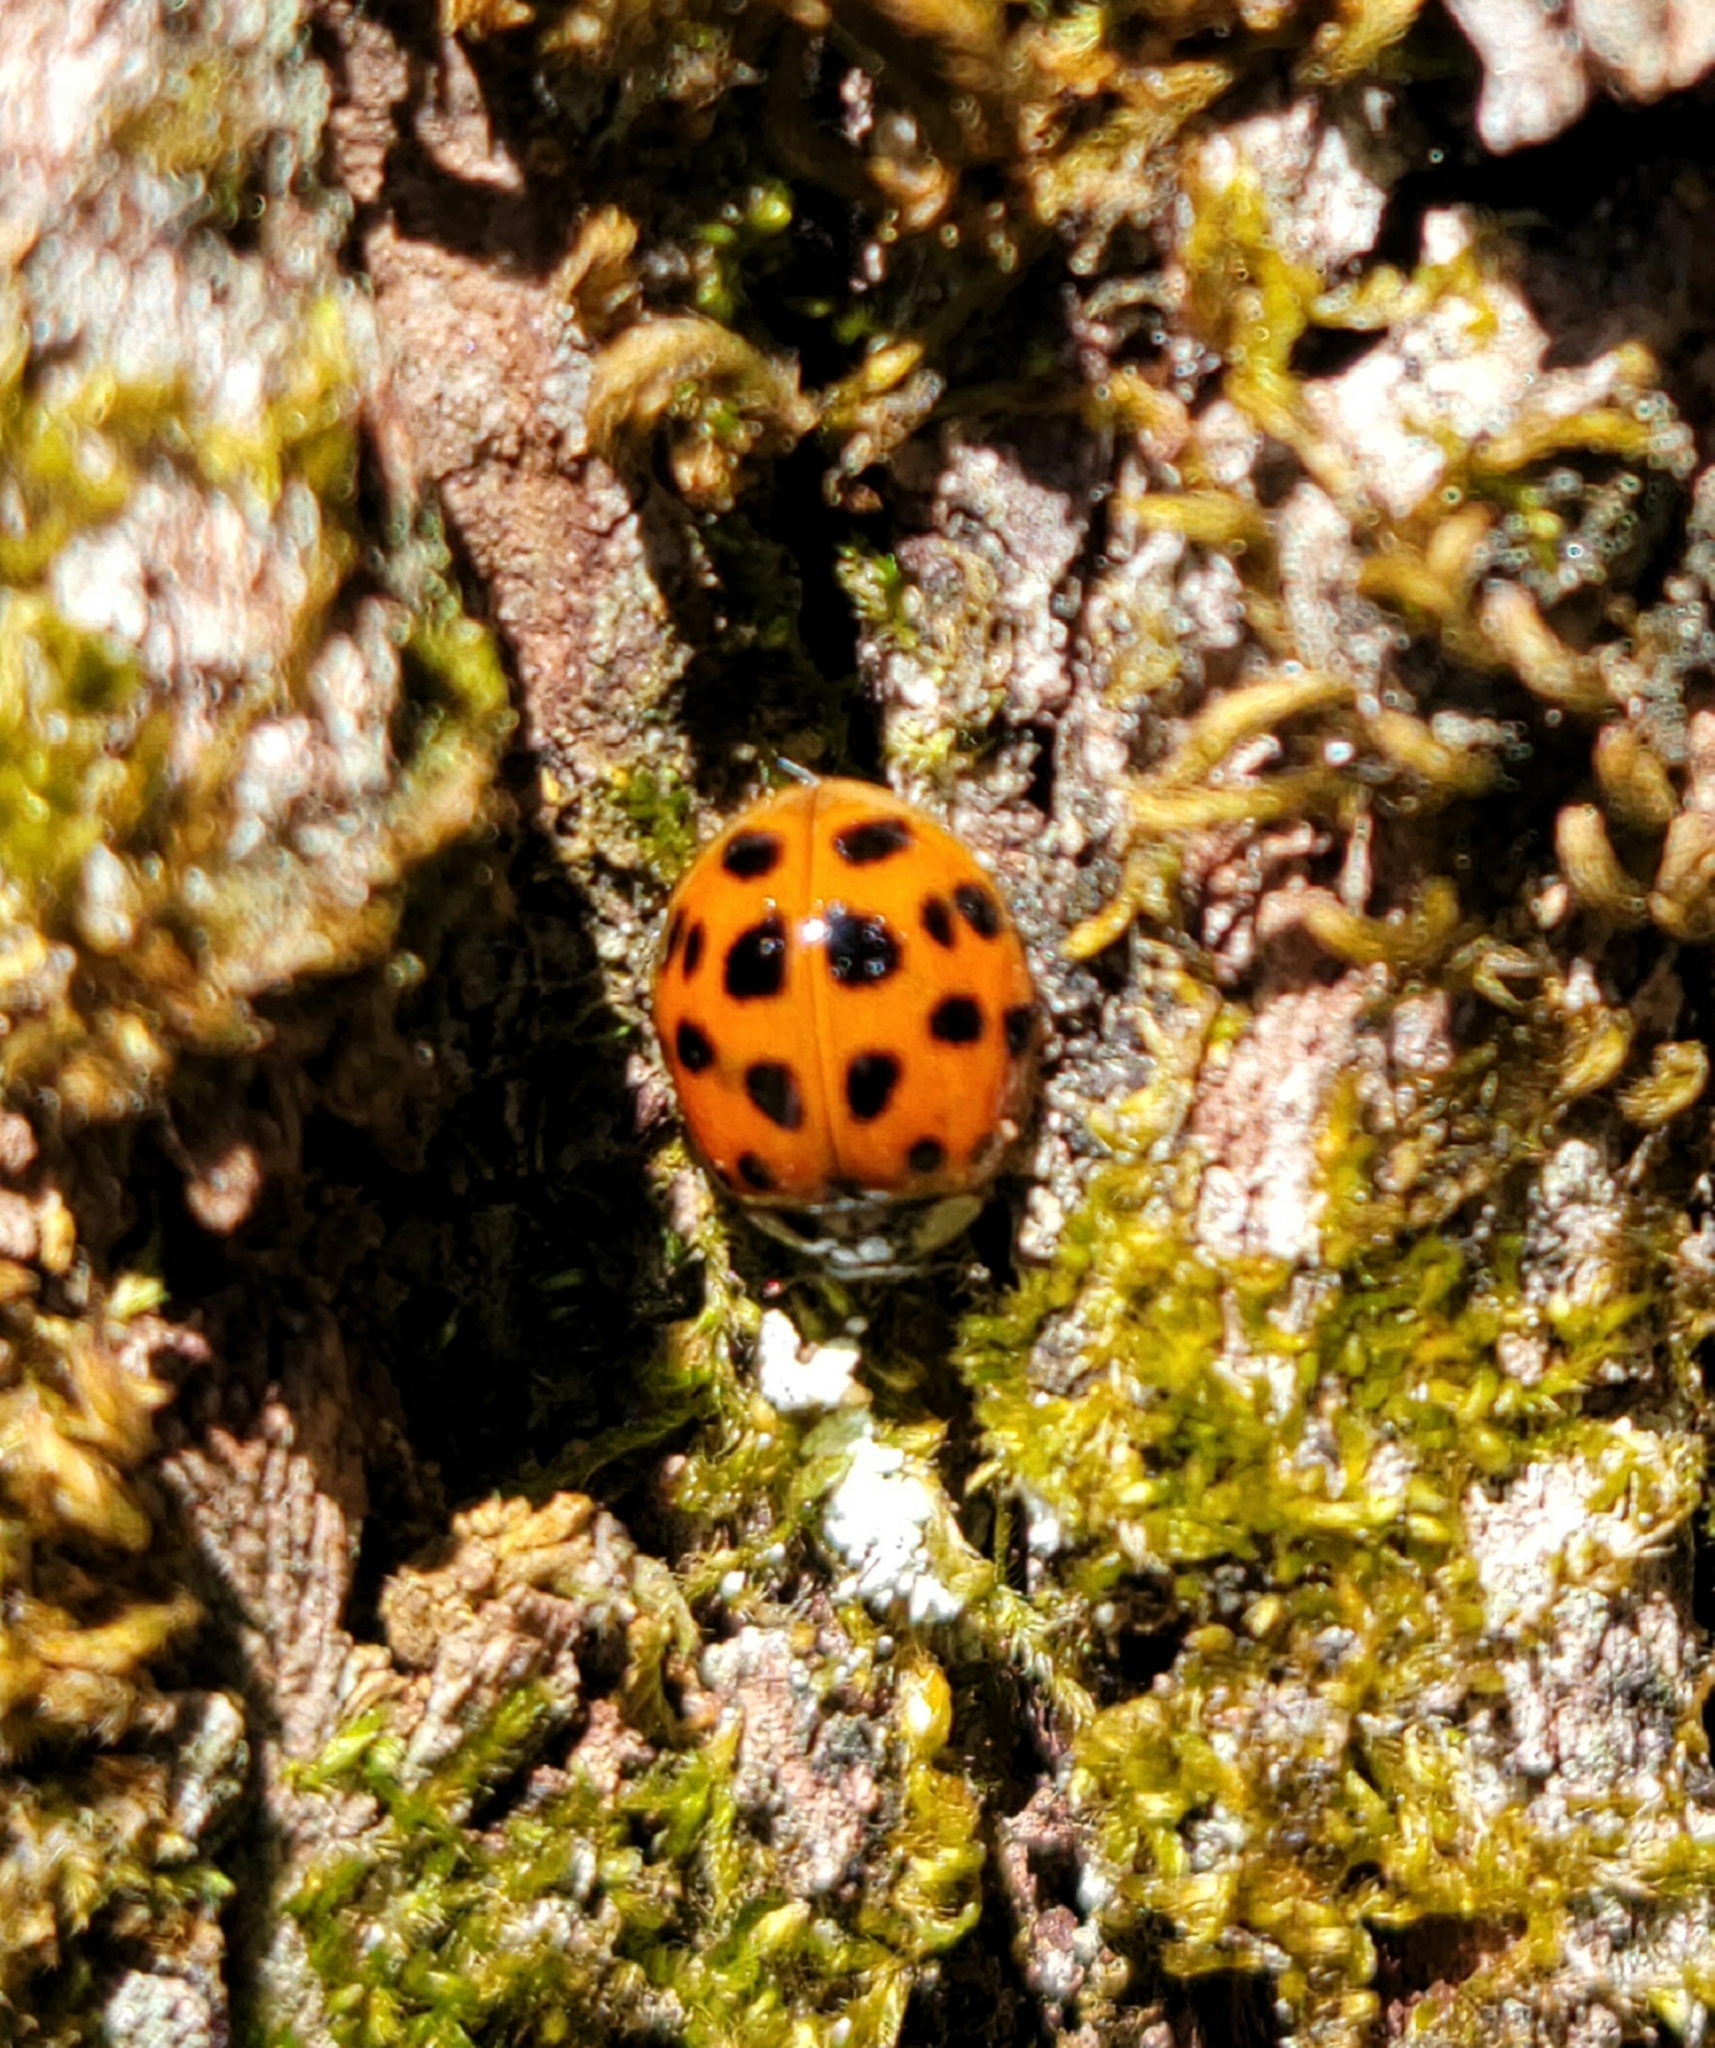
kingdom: Animalia
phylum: Arthropoda
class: Insecta
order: Coleoptera
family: Coccinellidae
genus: Harmonia
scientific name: Harmonia axyridis
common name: Harlequin ladybird
